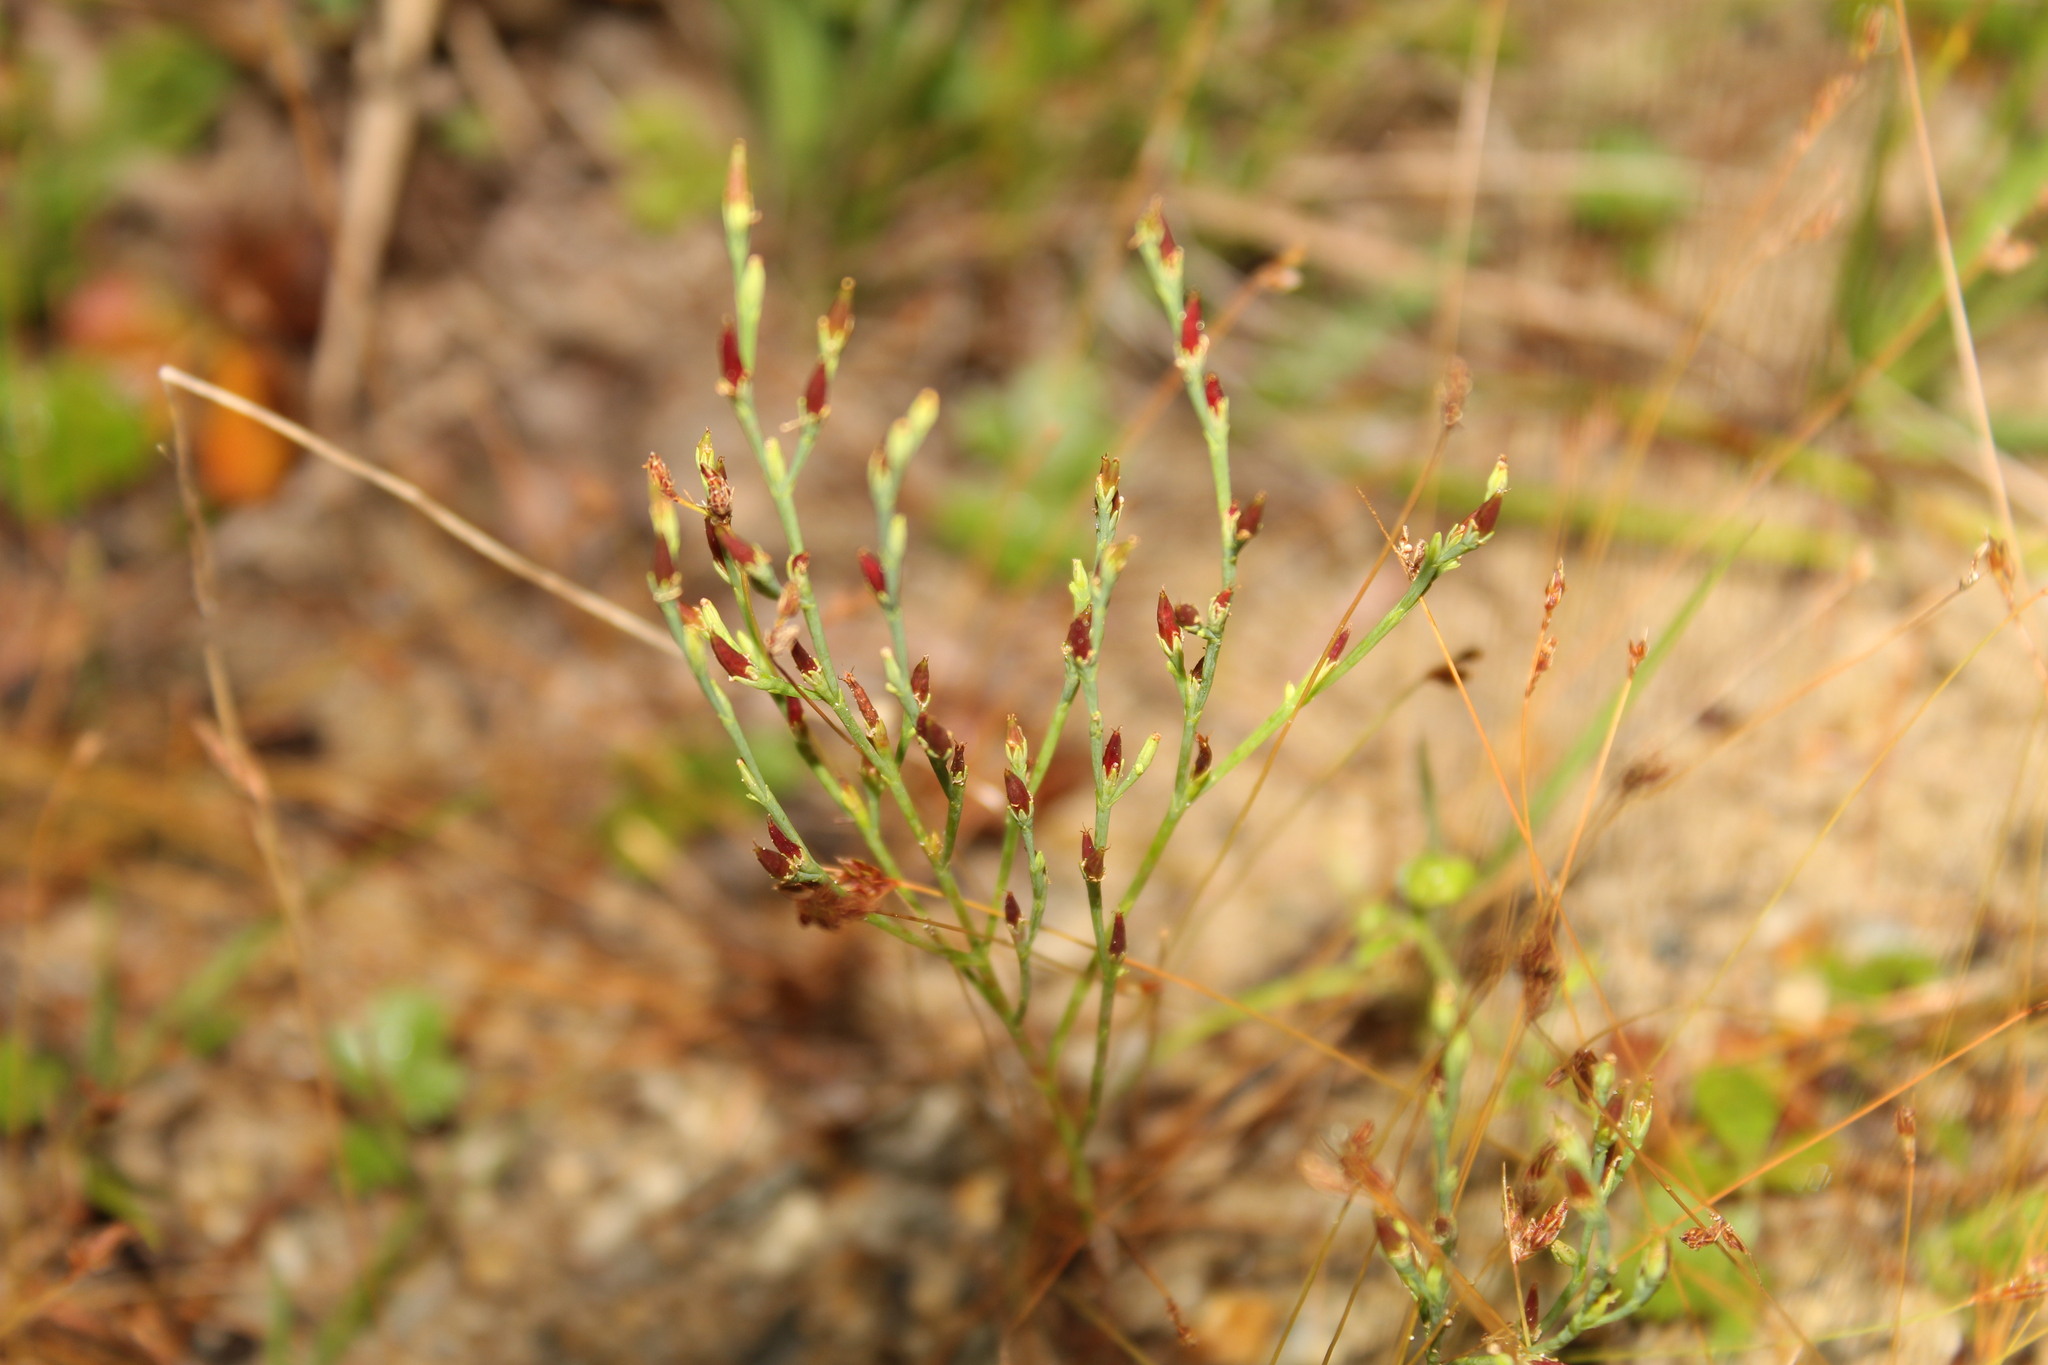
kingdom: Plantae
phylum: Tracheophyta
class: Magnoliopsida
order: Malpighiales
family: Hypericaceae
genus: Hypericum
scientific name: Hypericum gentianoides
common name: Gentian-leaved st. john's-wort
